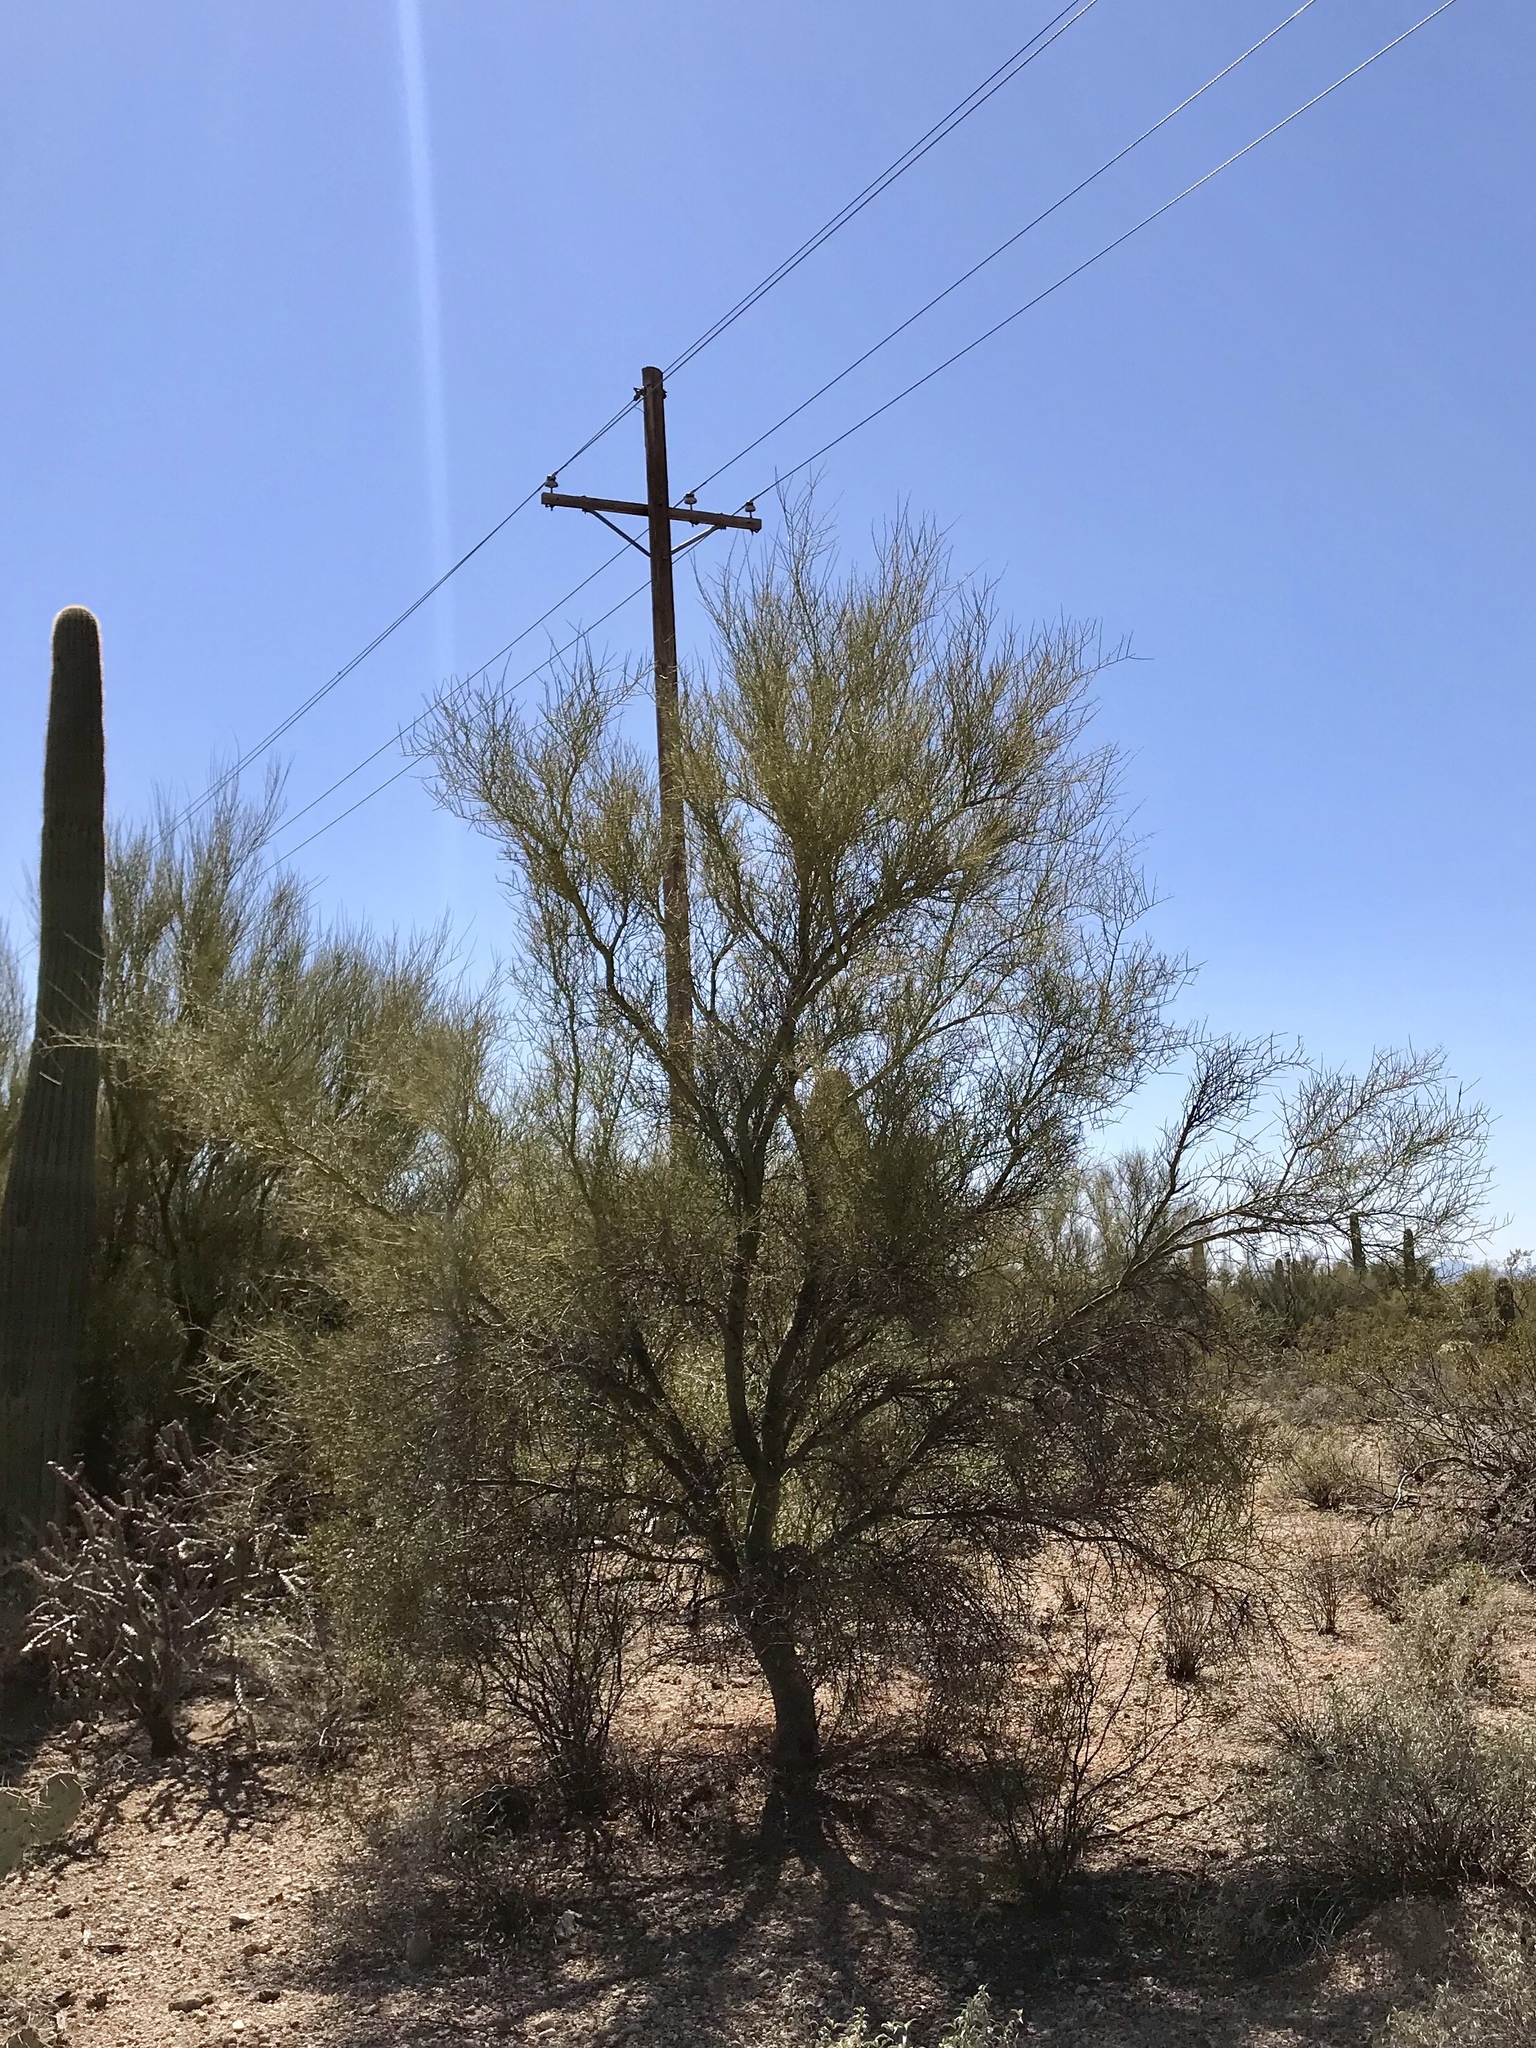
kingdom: Plantae
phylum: Tracheophyta
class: Magnoliopsida
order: Fabales
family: Fabaceae
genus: Parkinsonia
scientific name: Parkinsonia microphylla
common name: Yellow paloverde
